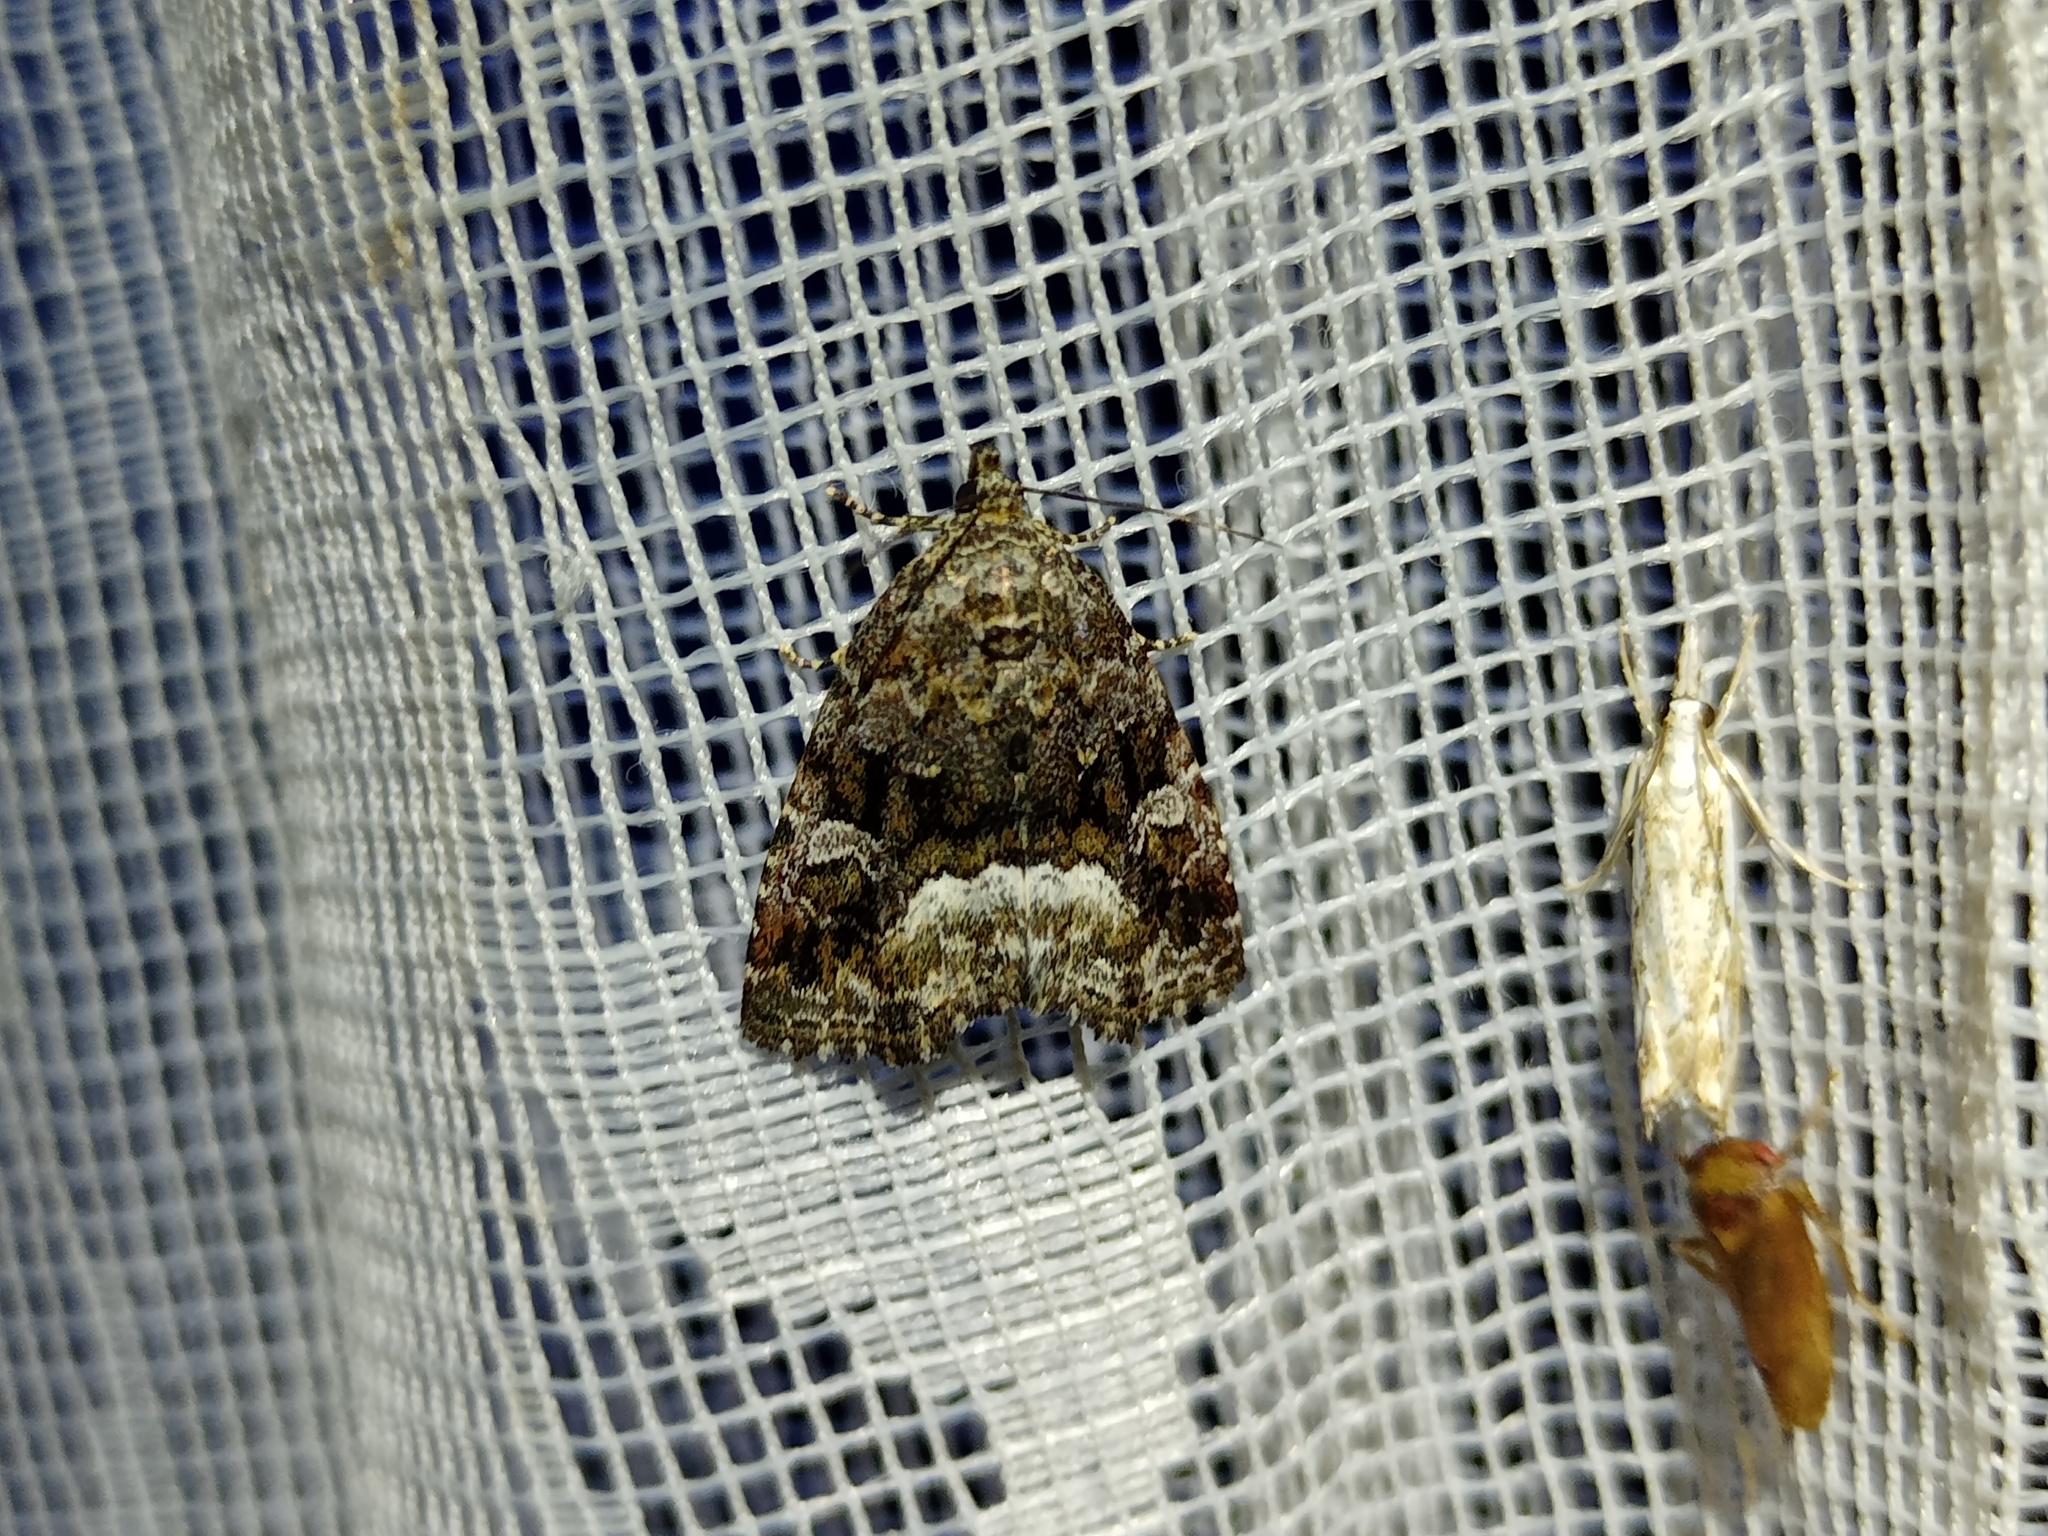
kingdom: Animalia
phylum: Arthropoda
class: Insecta
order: Lepidoptera
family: Noctuidae
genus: Deltote
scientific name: Deltote pygarga
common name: Marbled white spot
